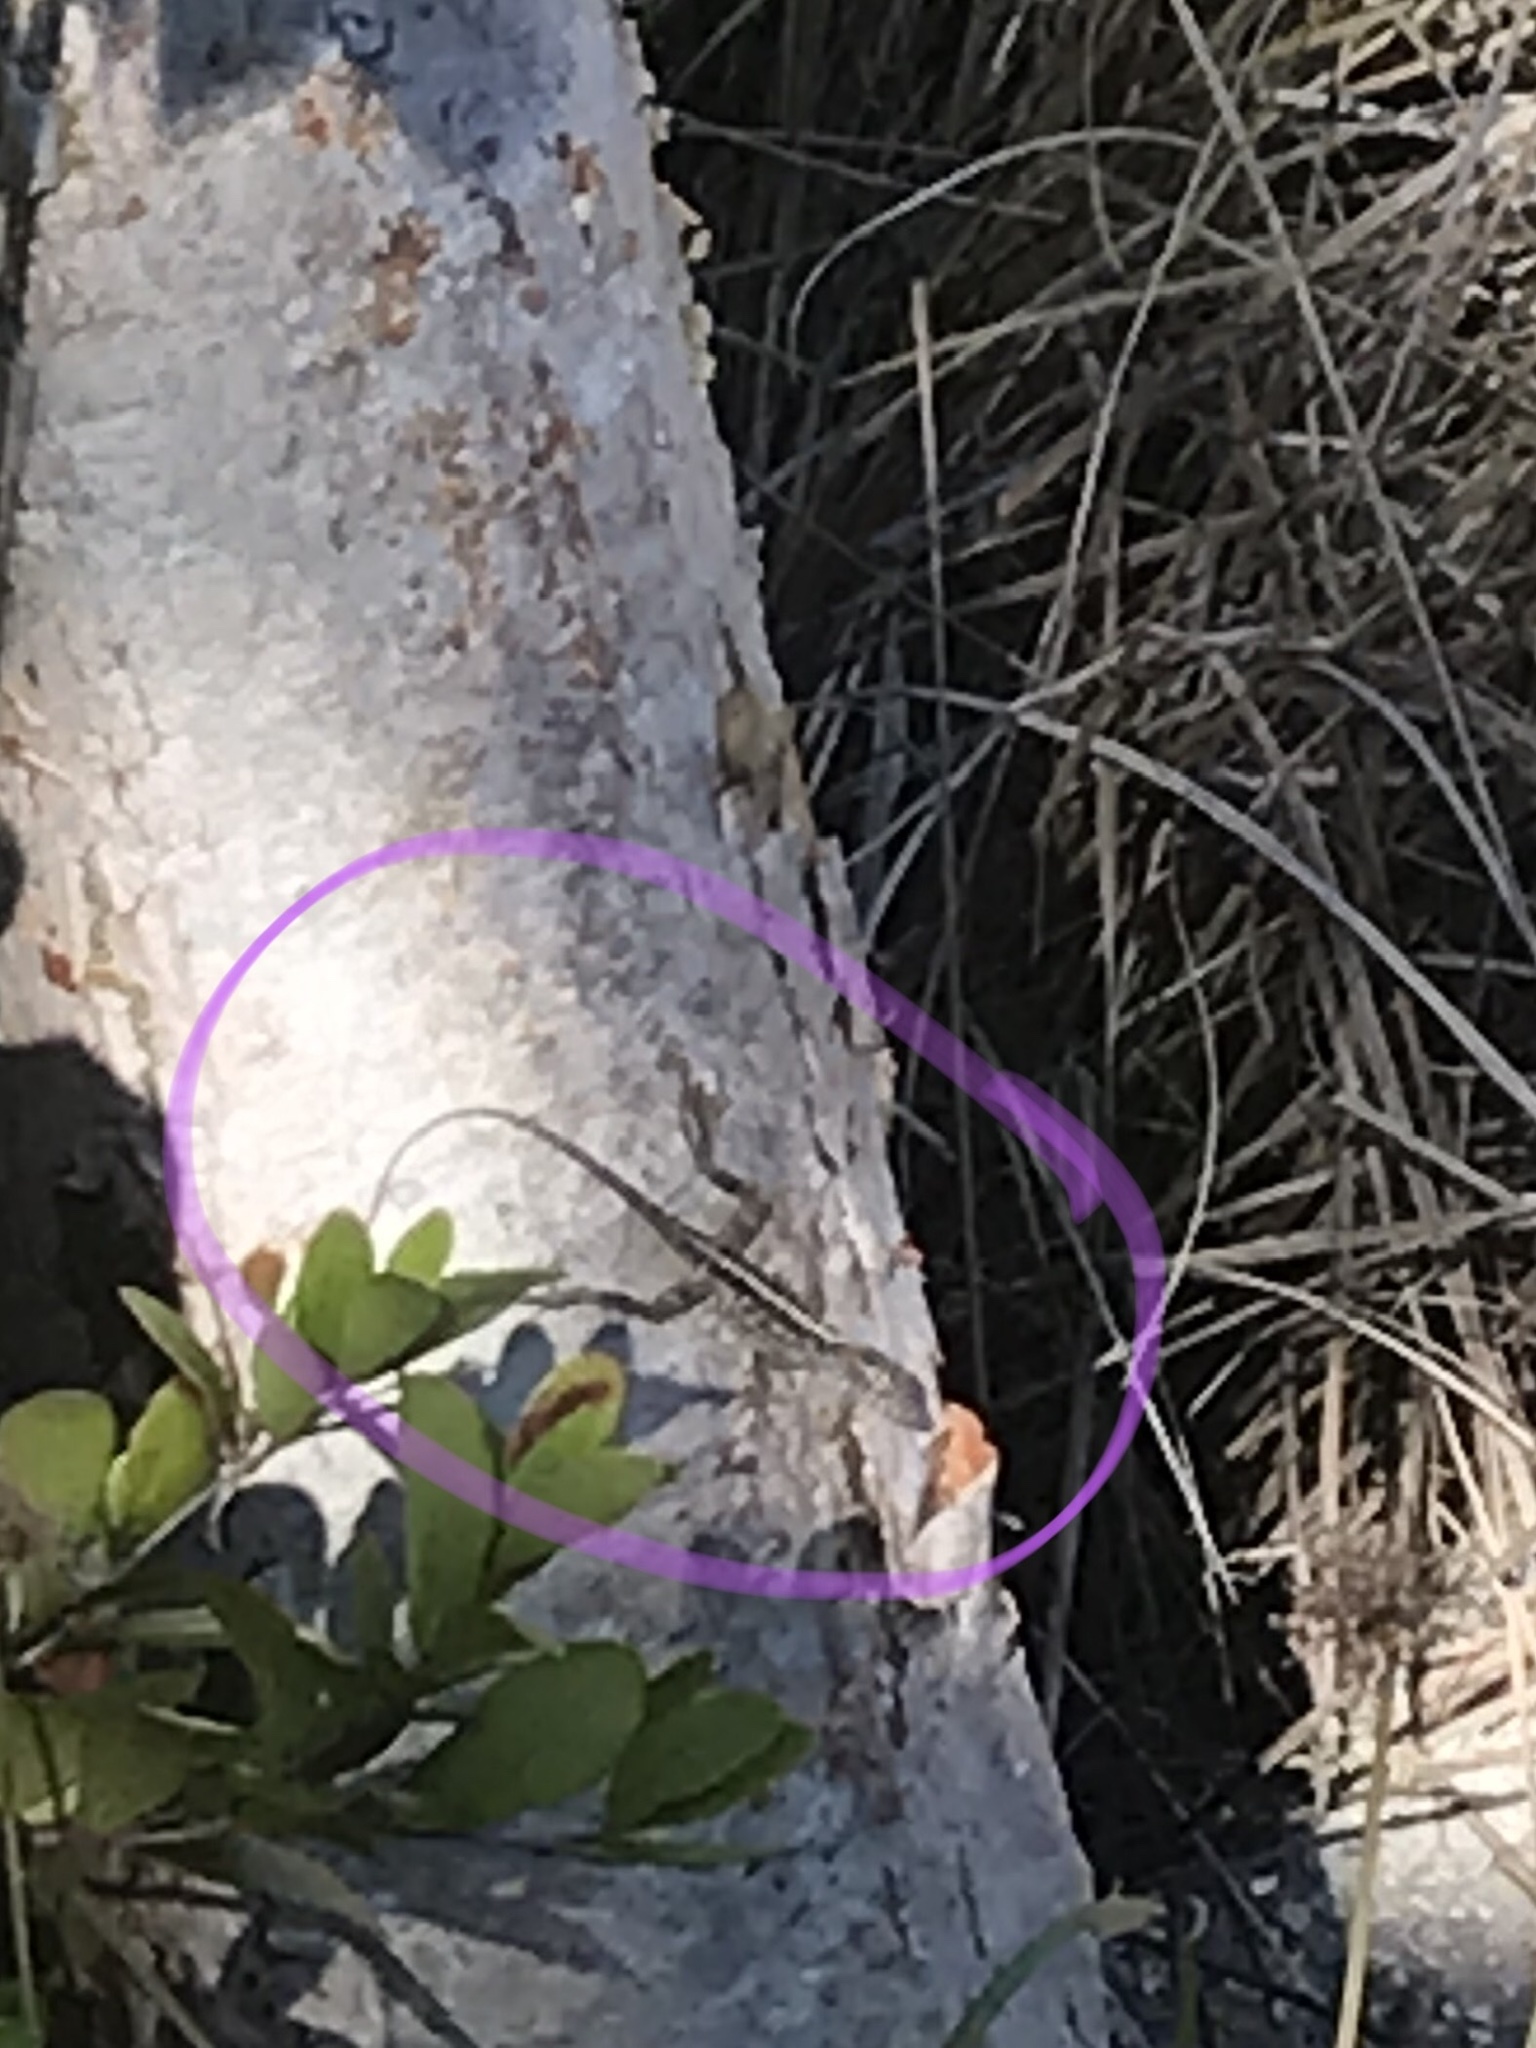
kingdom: Animalia
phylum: Chordata
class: Squamata
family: Dactyloidae
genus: Anolis
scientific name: Anolis sagrei
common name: Brown anole
